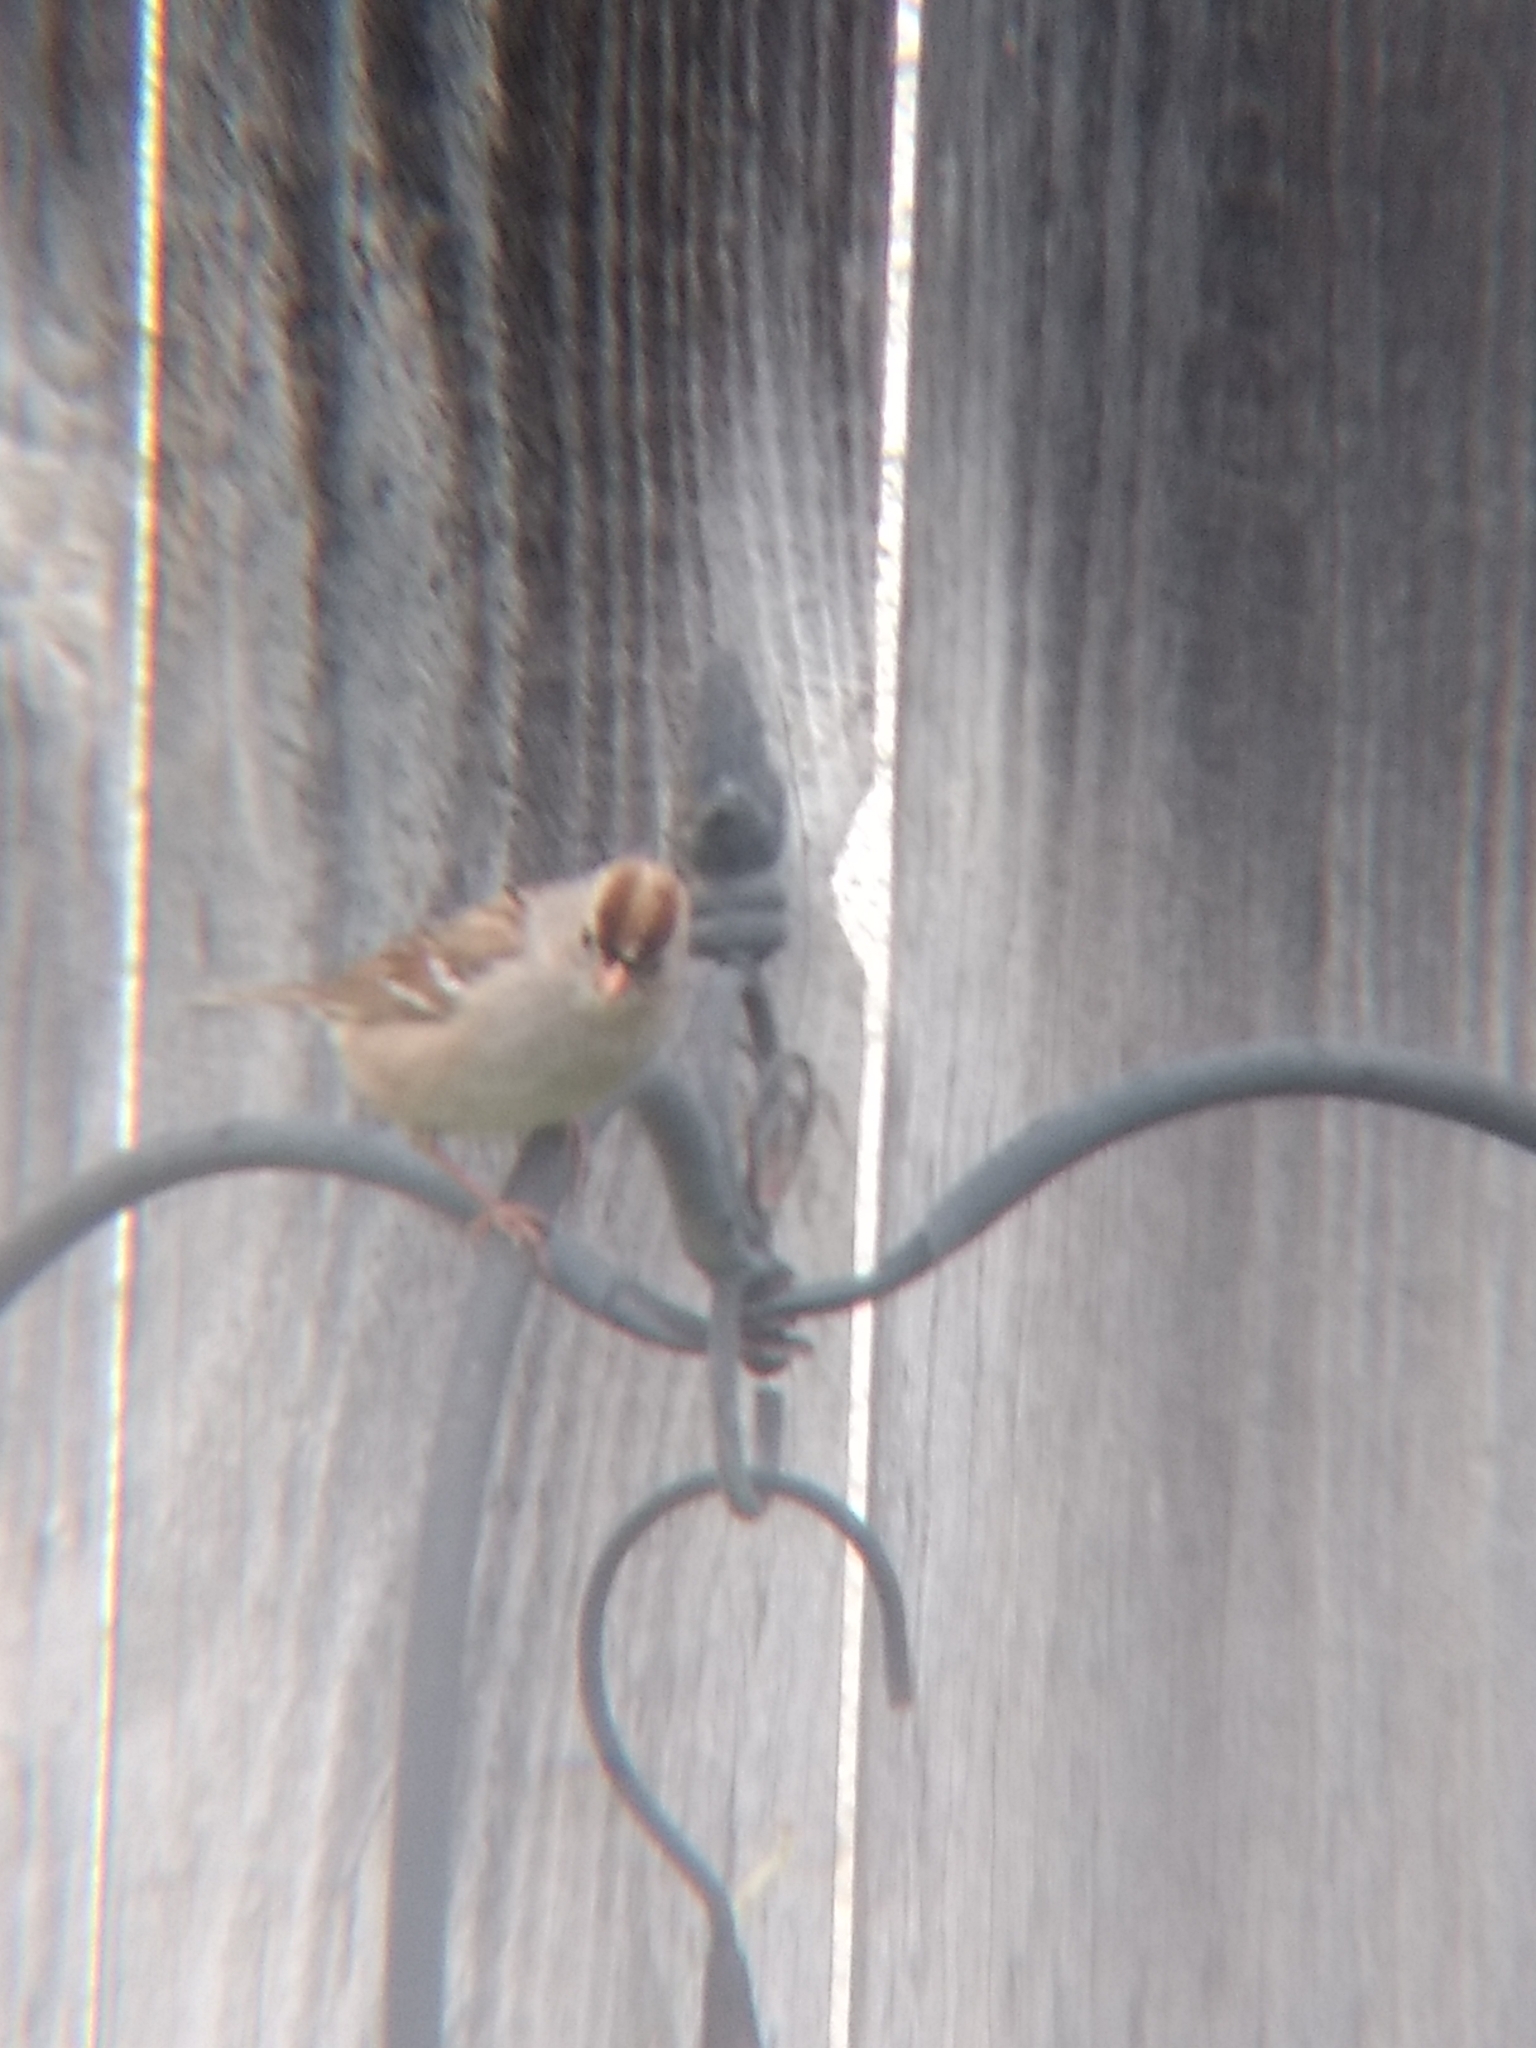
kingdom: Animalia
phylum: Chordata
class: Aves
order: Passeriformes
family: Passerellidae
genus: Zonotrichia
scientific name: Zonotrichia leucophrys
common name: White-crowned sparrow
